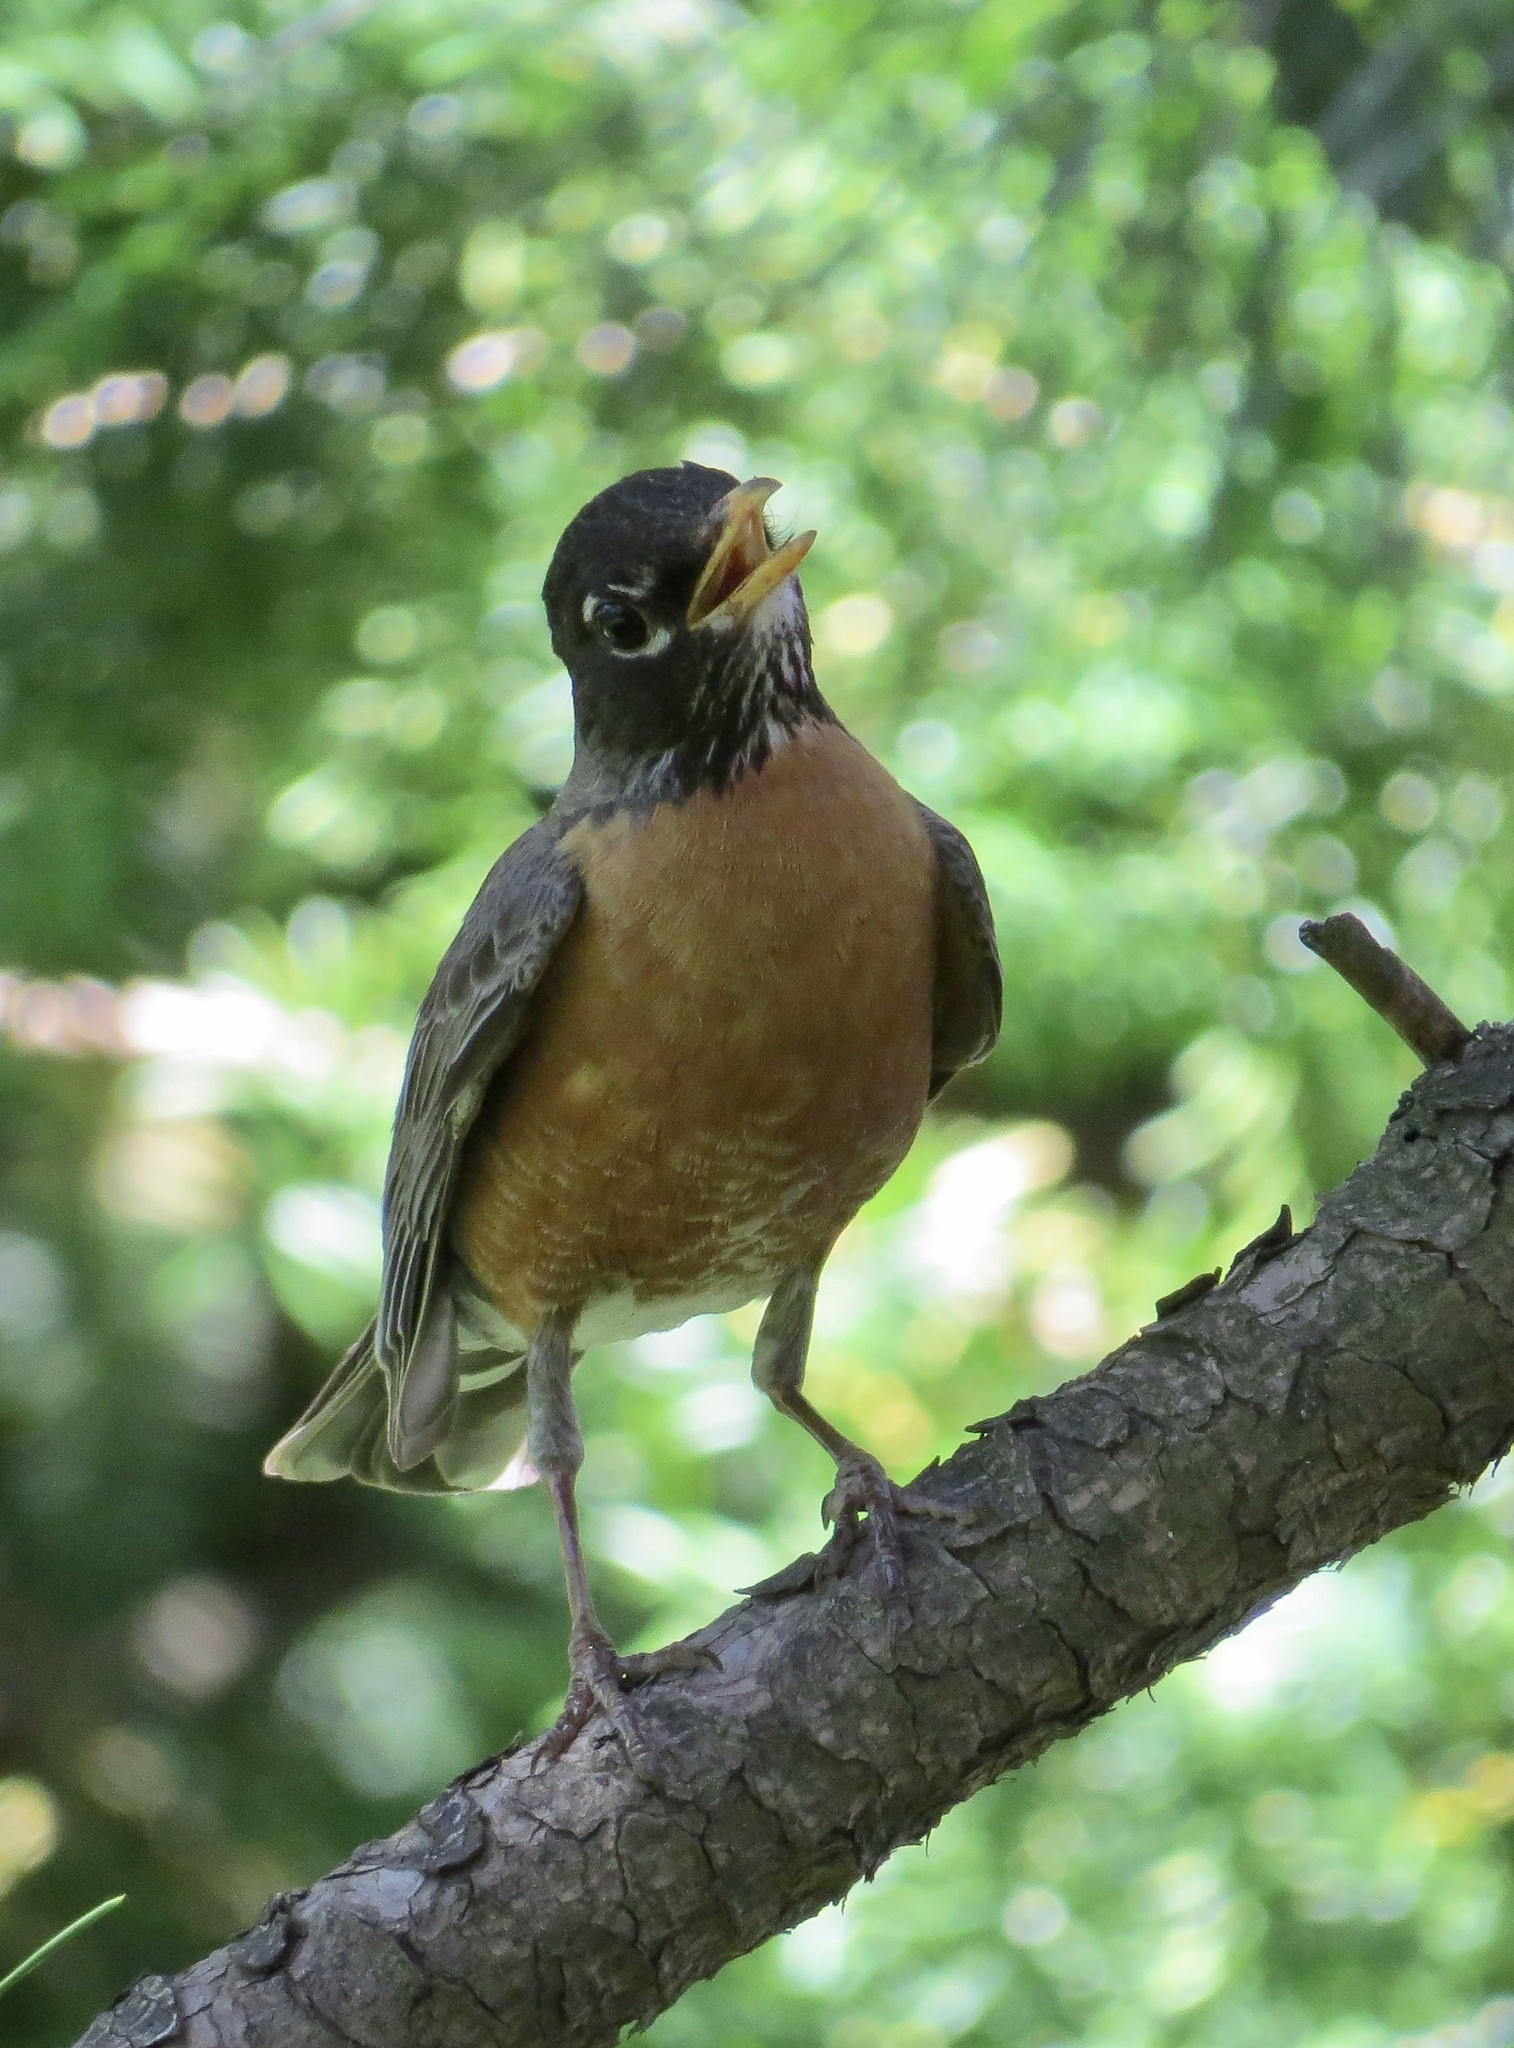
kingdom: Animalia
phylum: Chordata
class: Aves
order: Passeriformes
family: Turdidae
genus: Turdus
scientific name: Turdus migratorius
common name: American robin
